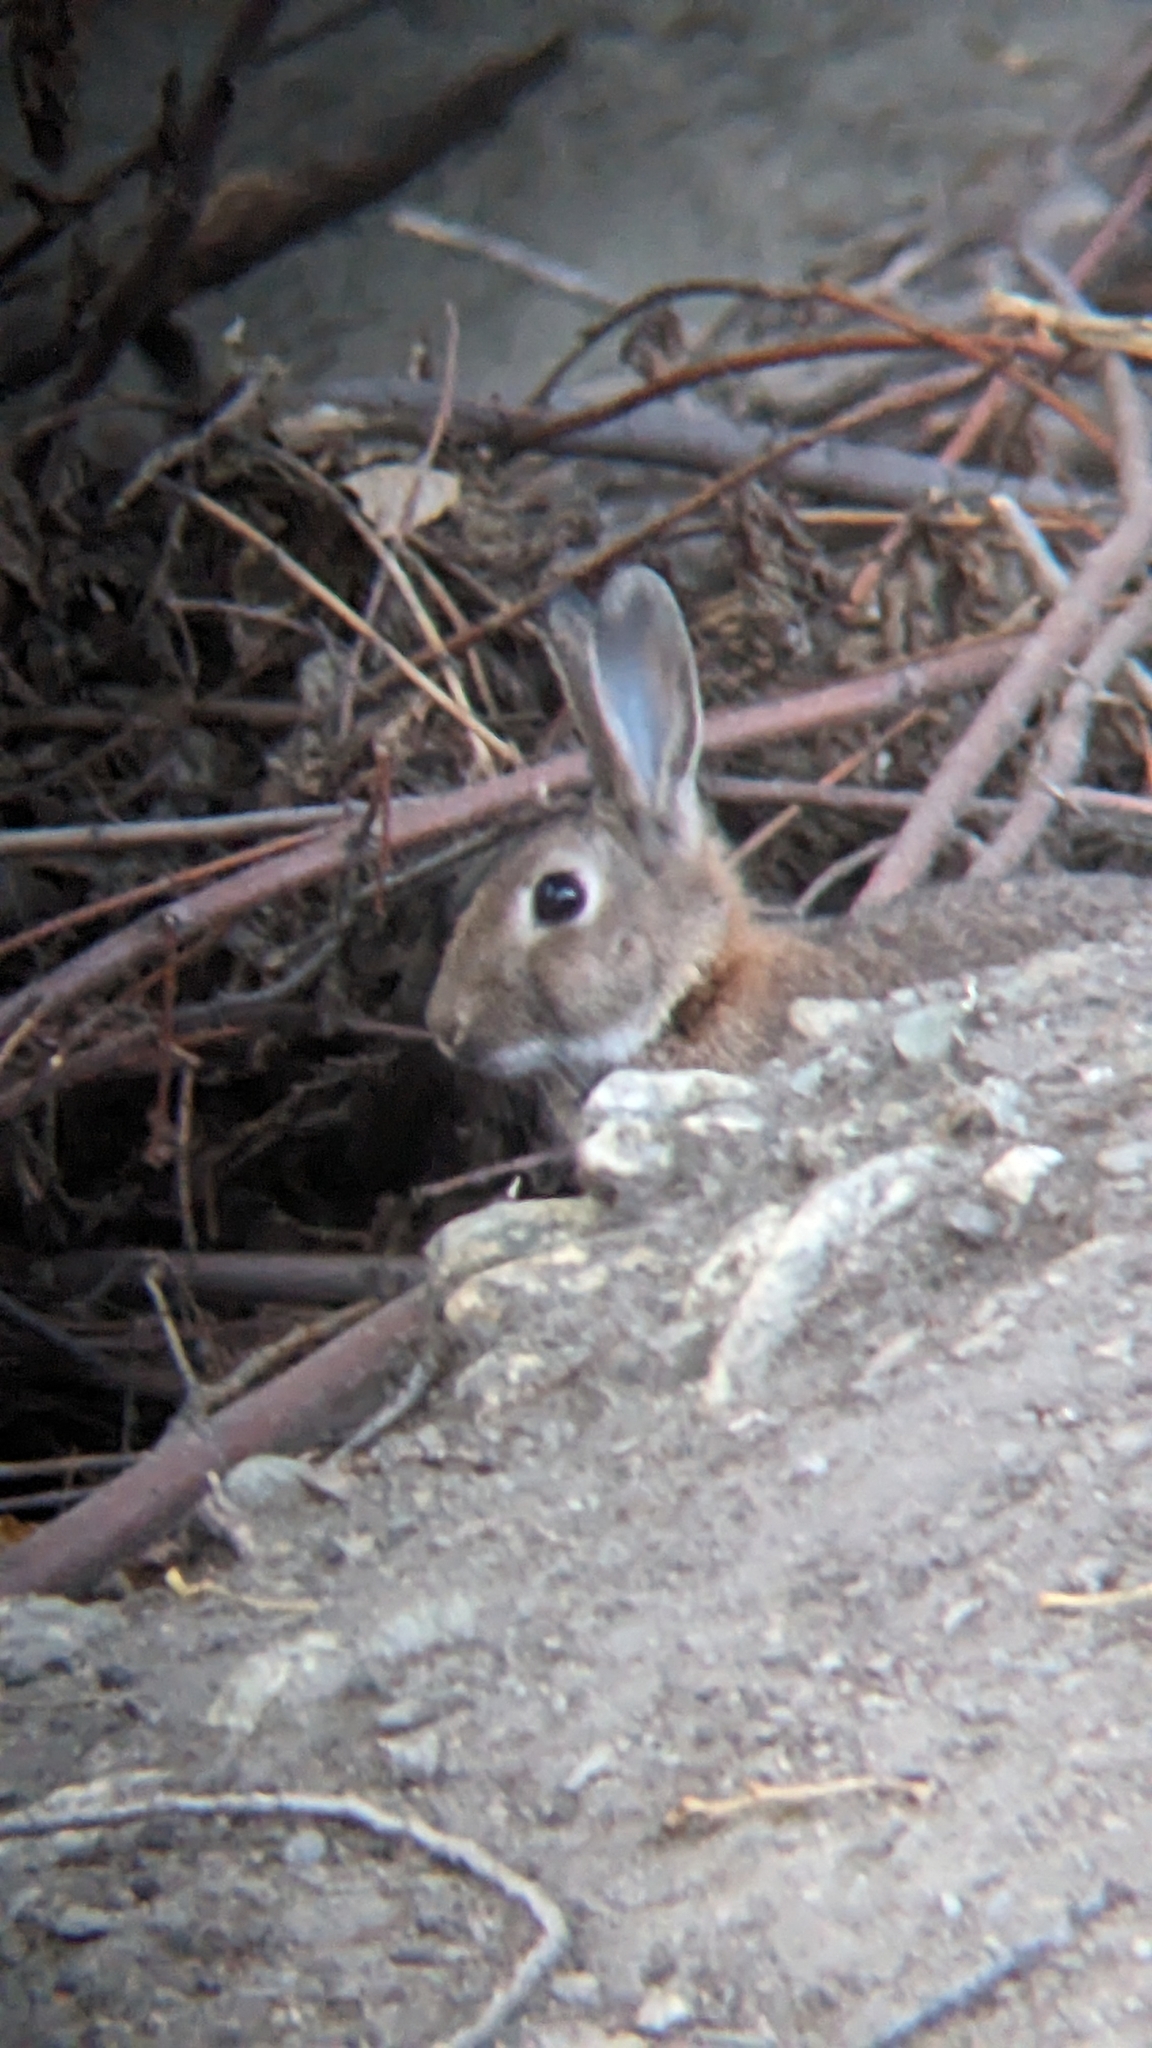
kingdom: Animalia
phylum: Chordata
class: Mammalia
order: Lagomorpha
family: Leporidae
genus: Oryctolagus
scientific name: Oryctolagus cuniculus
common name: European rabbit
